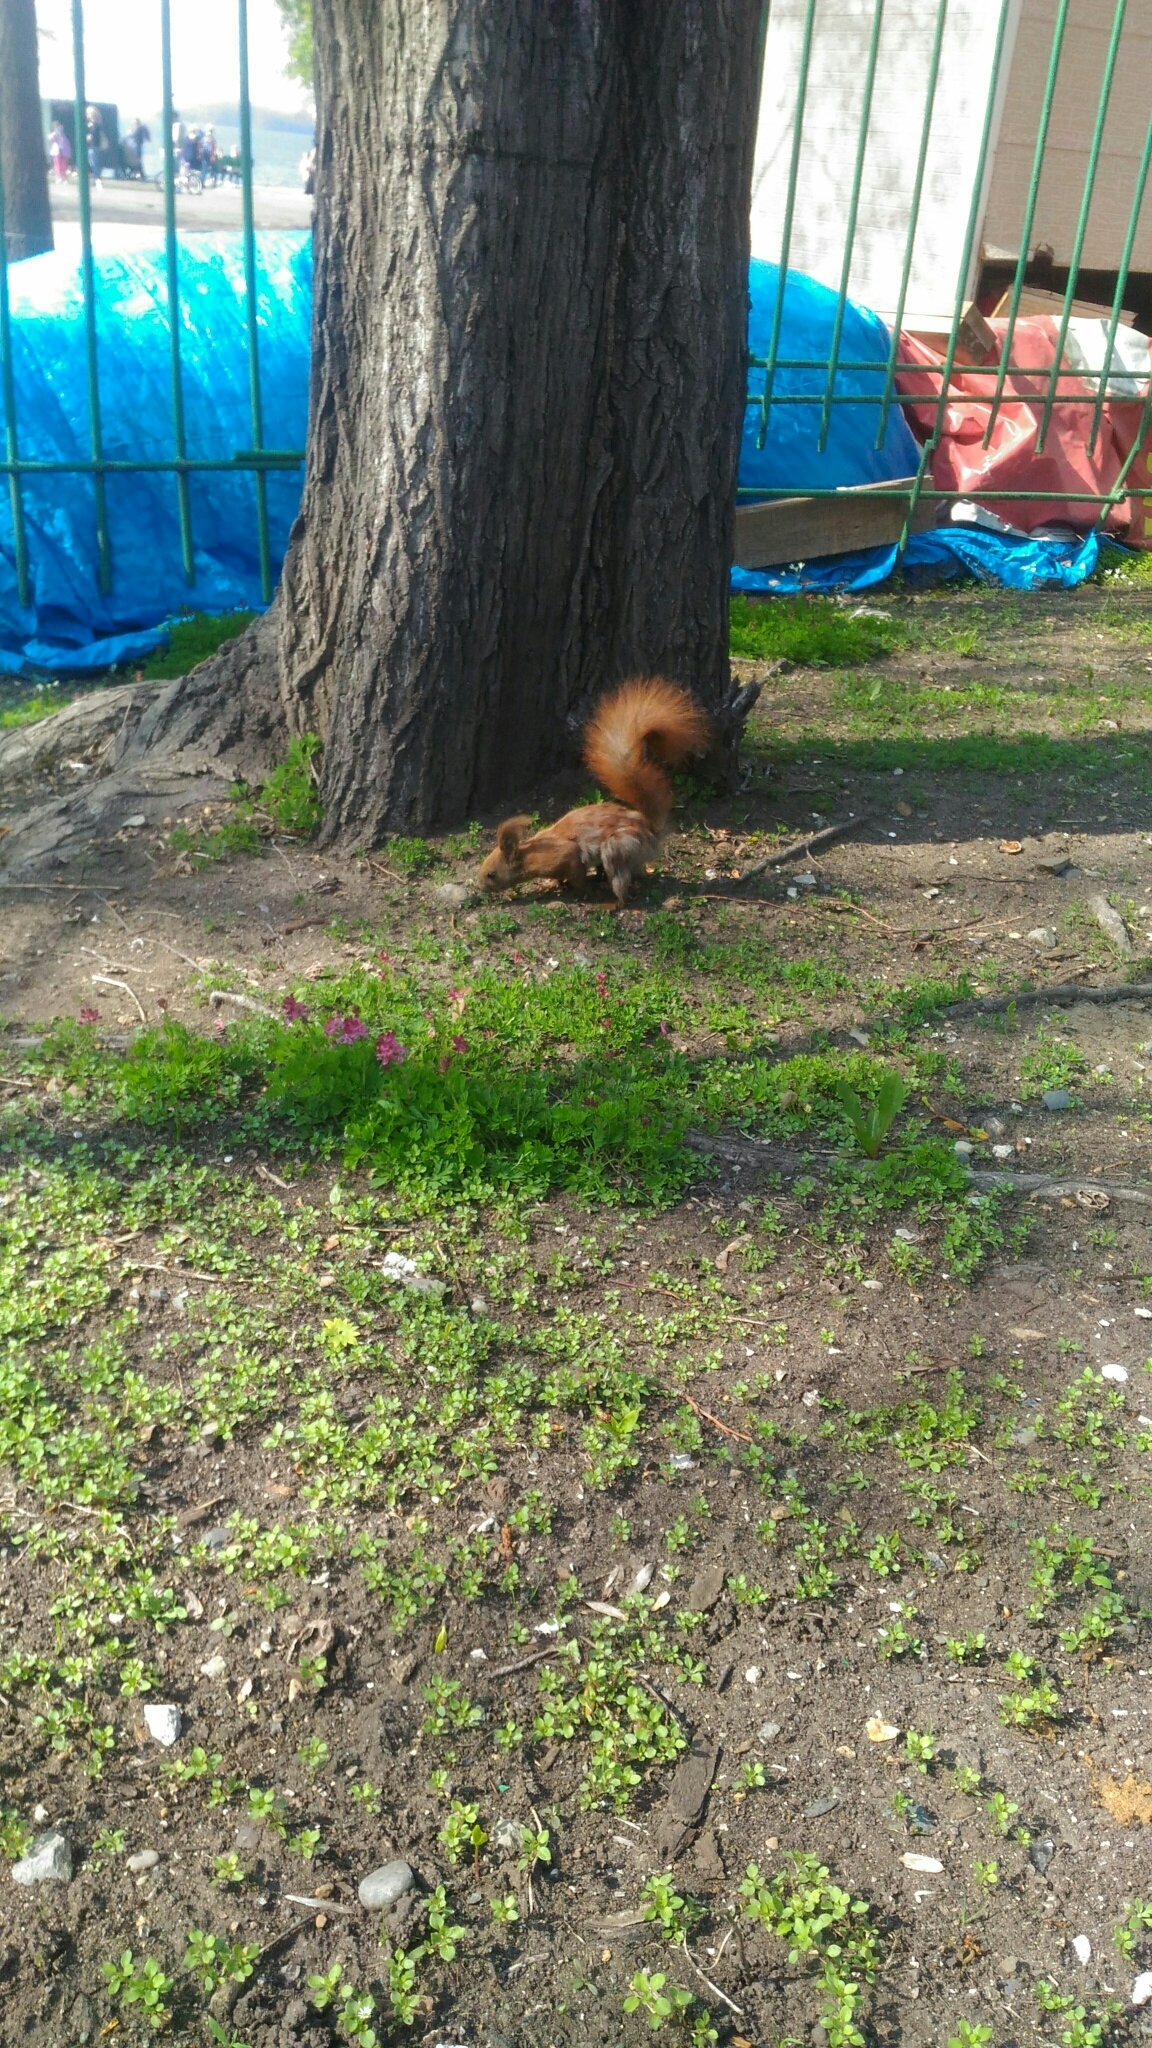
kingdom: Animalia
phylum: Chordata
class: Mammalia
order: Rodentia
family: Sciuridae
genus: Sciurus
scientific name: Sciurus vulgaris
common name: Eurasian red squirrel
